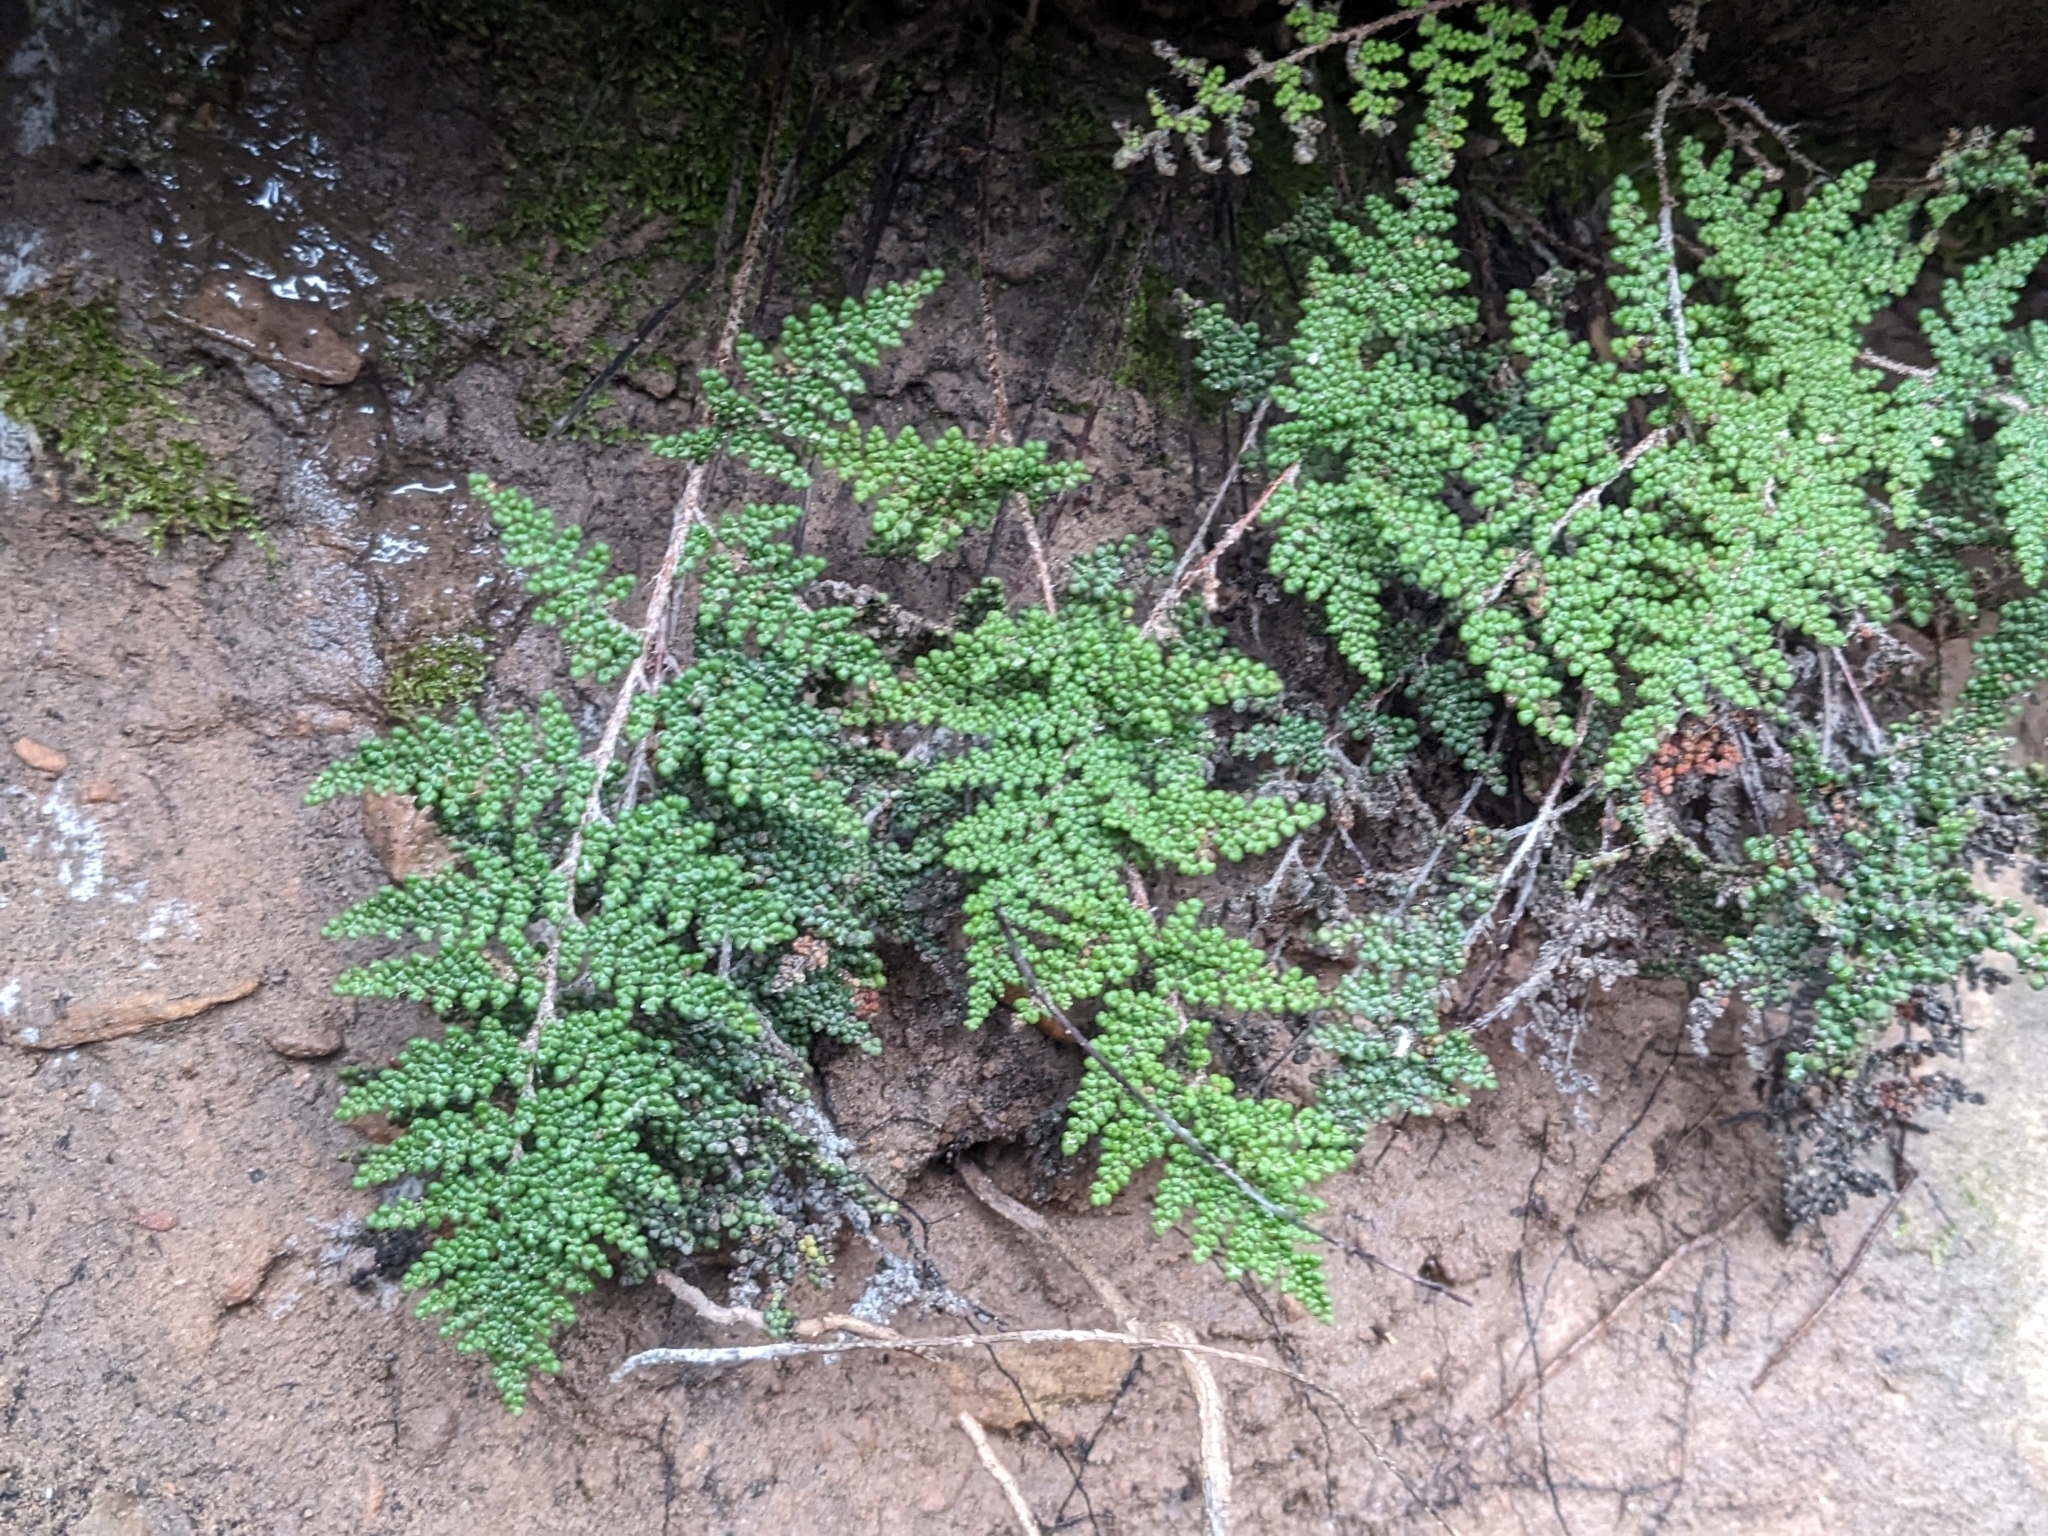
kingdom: Plantae
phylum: Tracheophyta
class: Polypodiopsida
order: Polypodiales
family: Pteridaceae
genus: Myriopteris
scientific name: Myriopteris covillei
